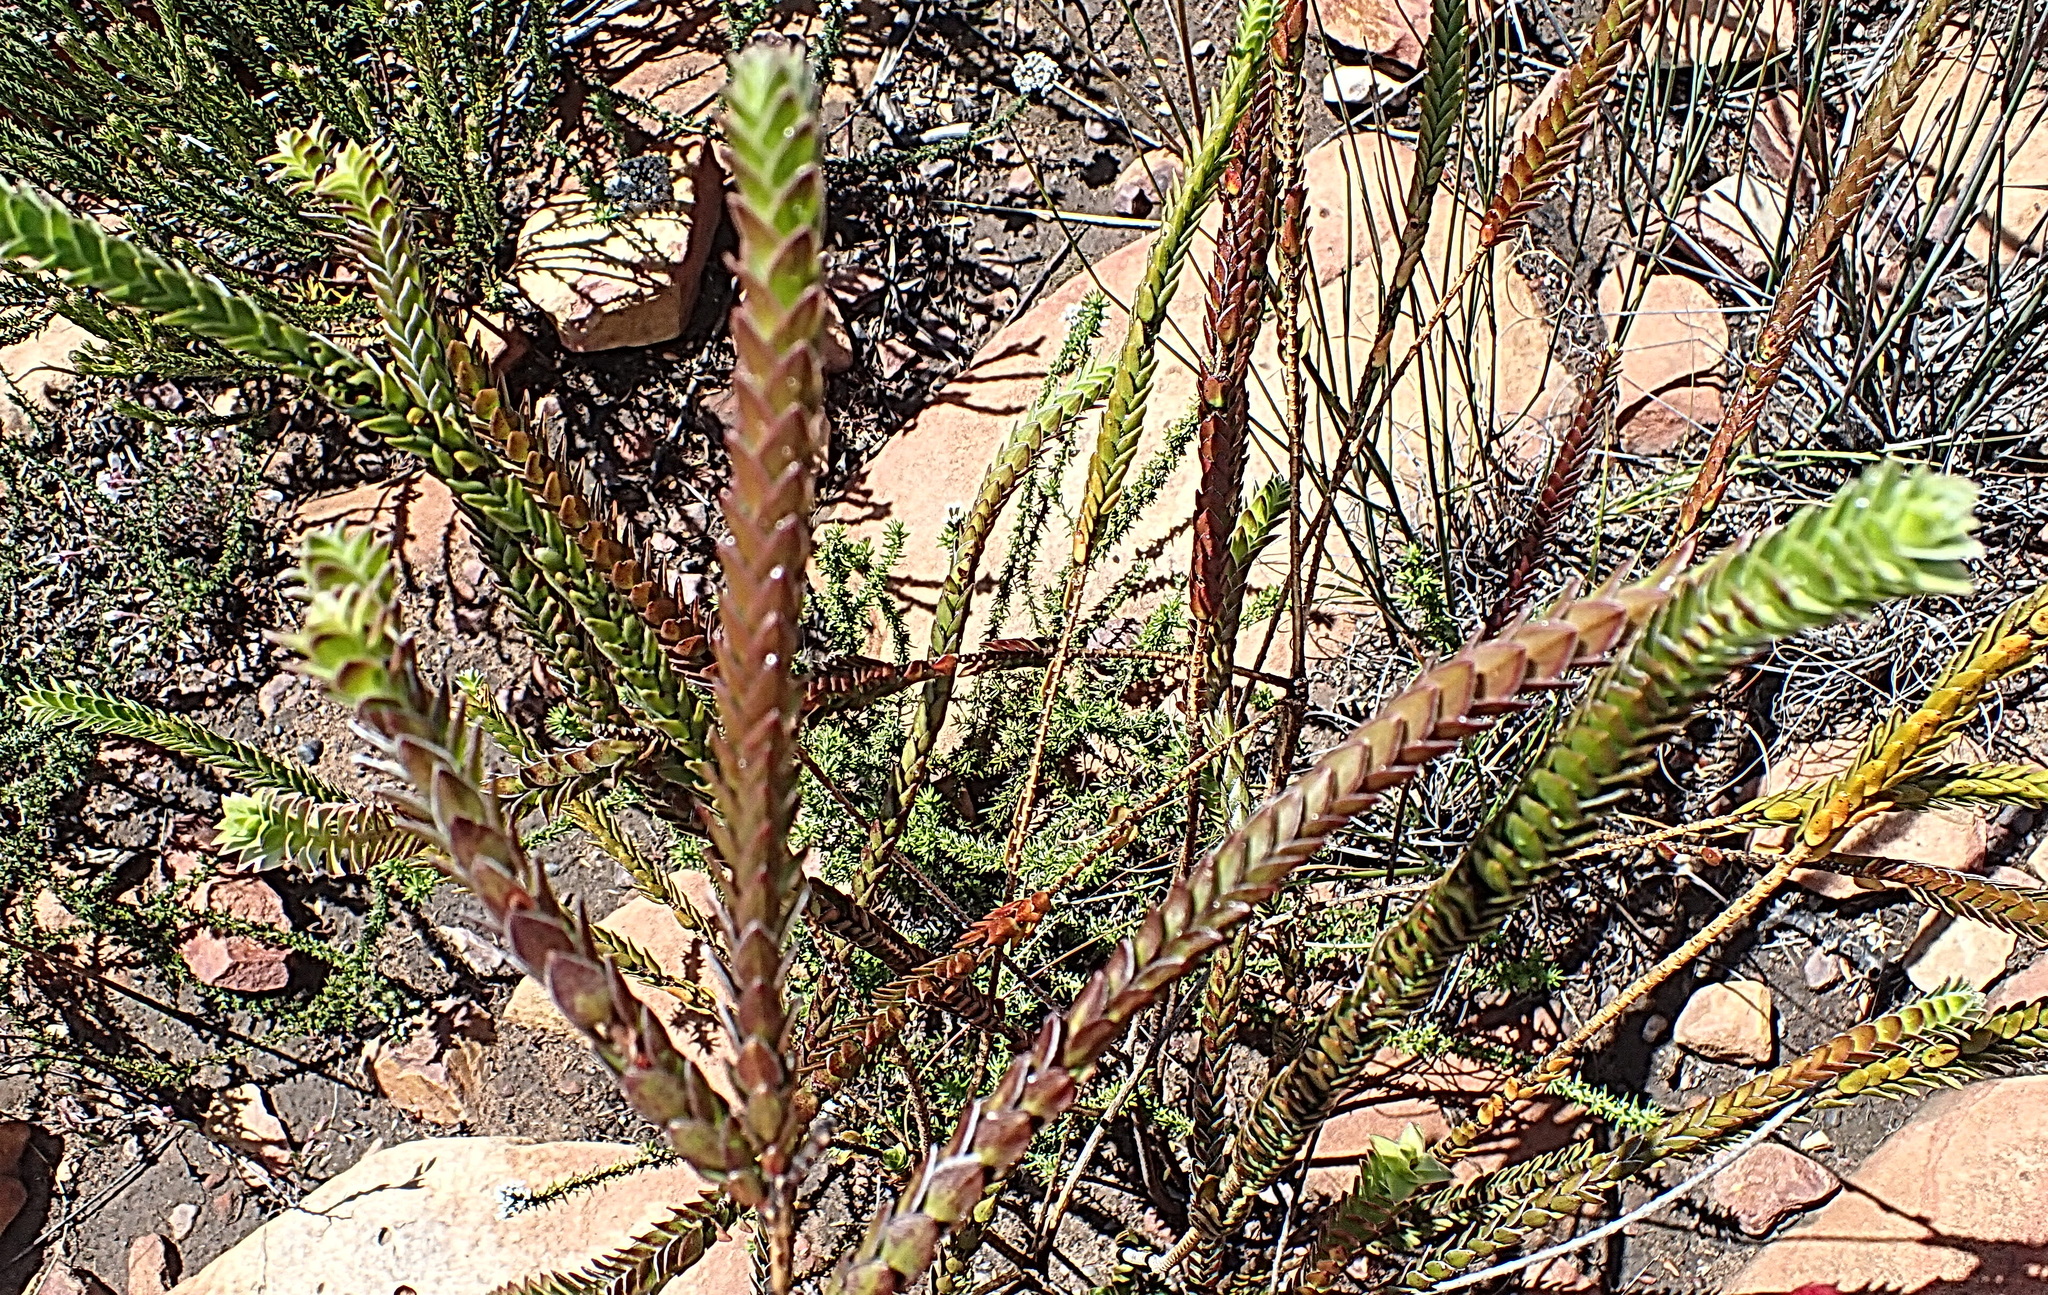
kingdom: Plantae
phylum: Tracheophyta
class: Magnoliopsida
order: Malvales
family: Thymelaeaceae
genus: Struthiola
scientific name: Struthiola argentea
